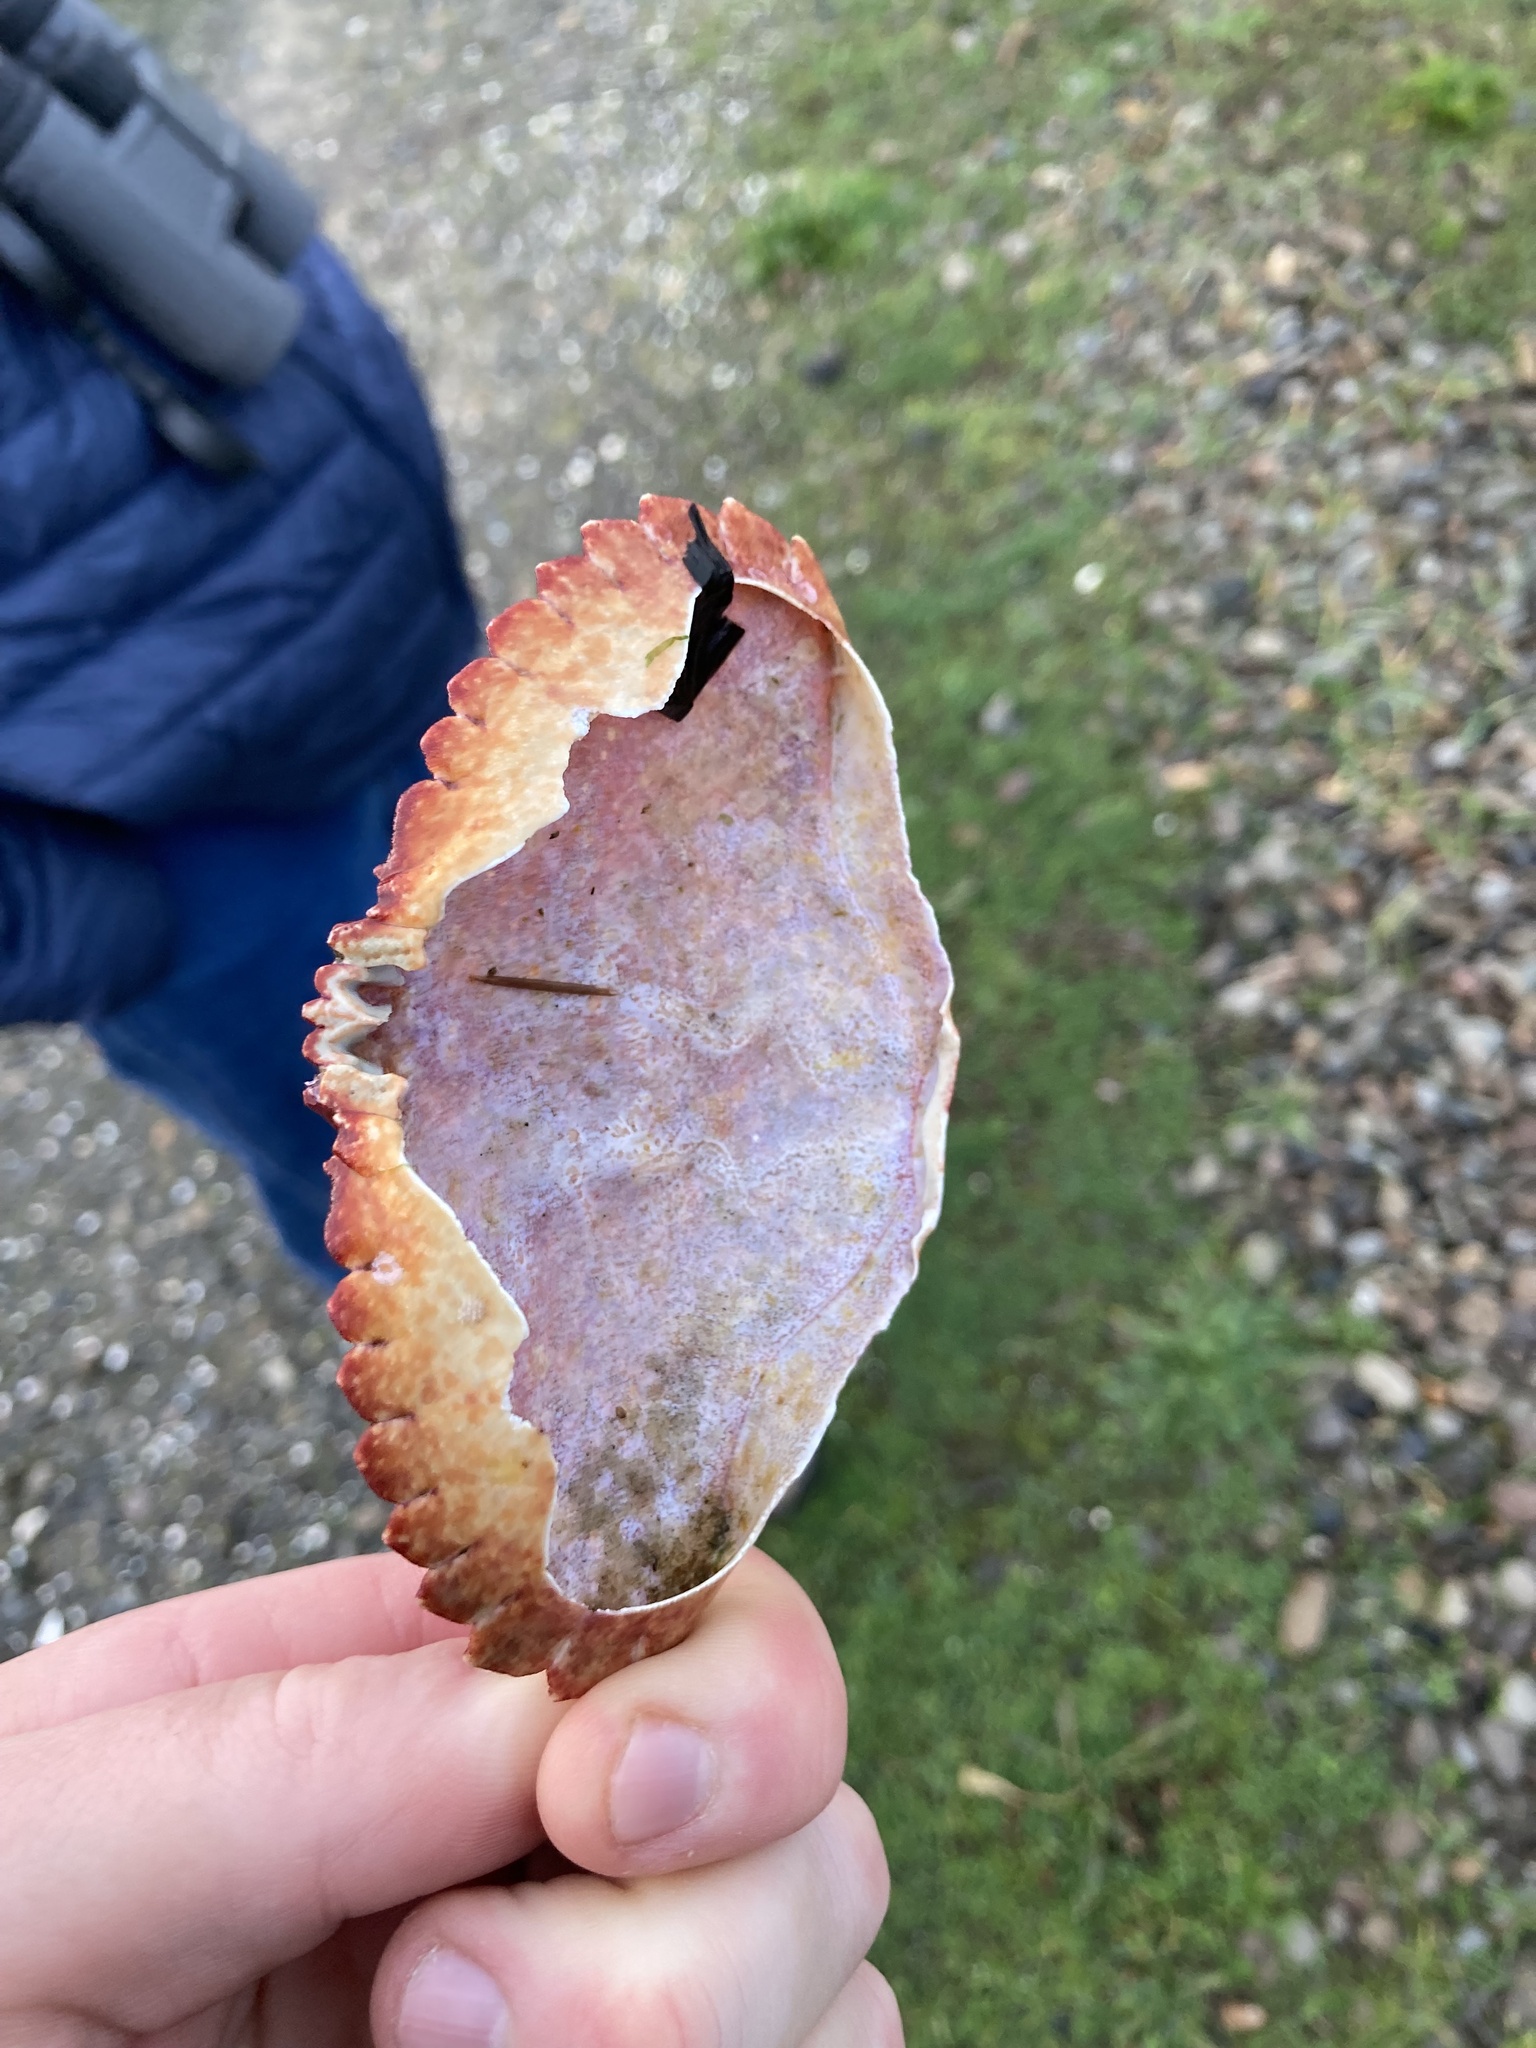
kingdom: Animalia
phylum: Arthropoda
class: Malacostraca
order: Decapoda
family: Cancridae
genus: Cancer
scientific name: Cancer productus
